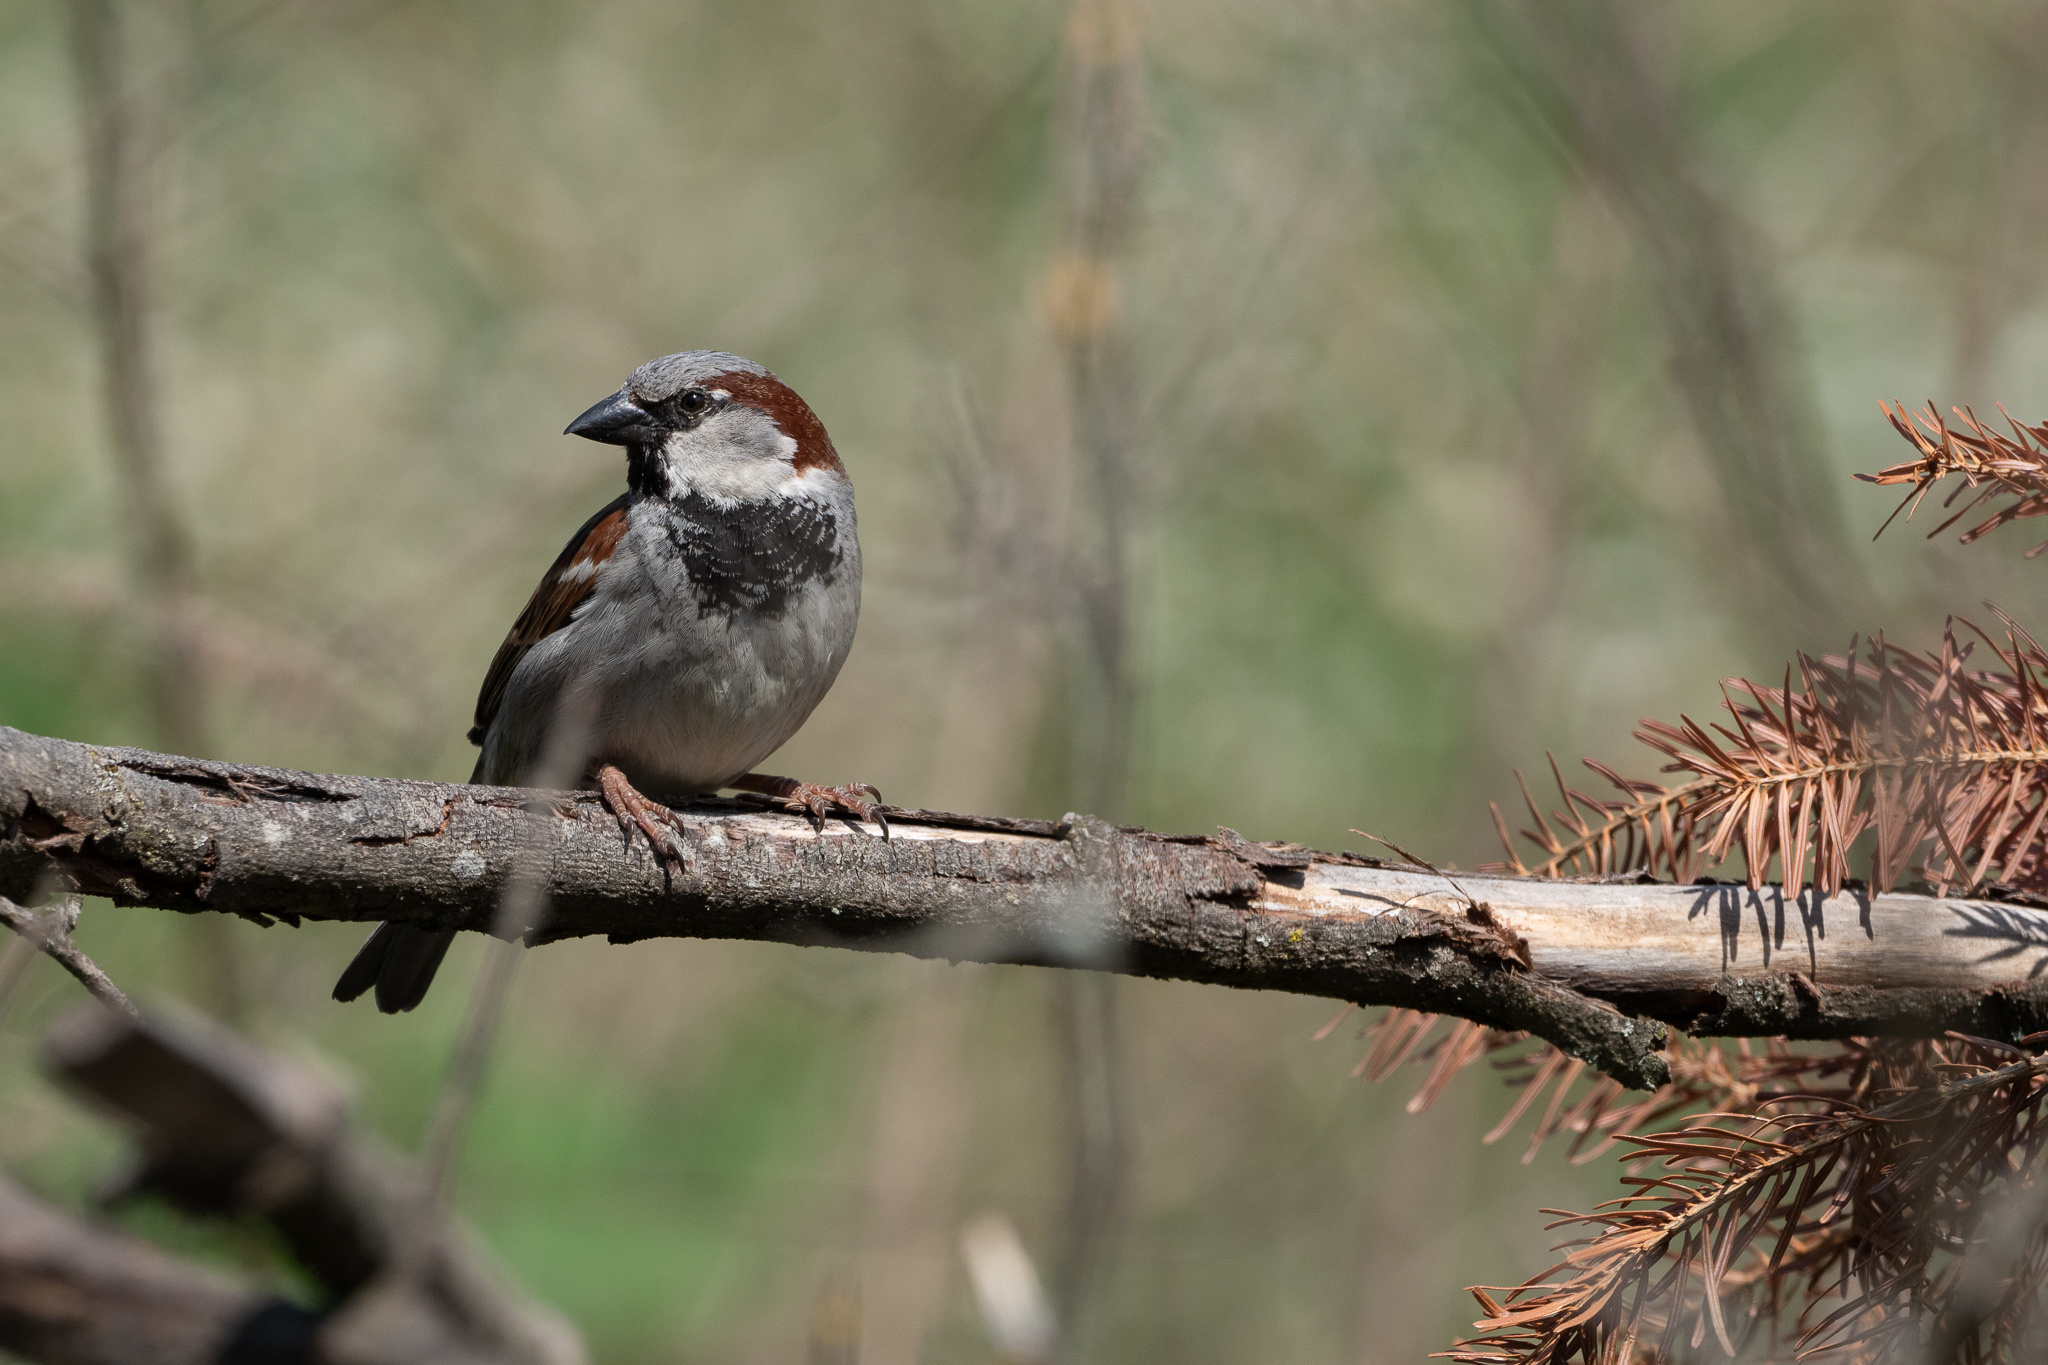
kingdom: Animalia
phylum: Chordata
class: Aves
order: Passeriformes
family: Passeridae
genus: Passer
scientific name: Passer domesticus
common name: House sparrow
